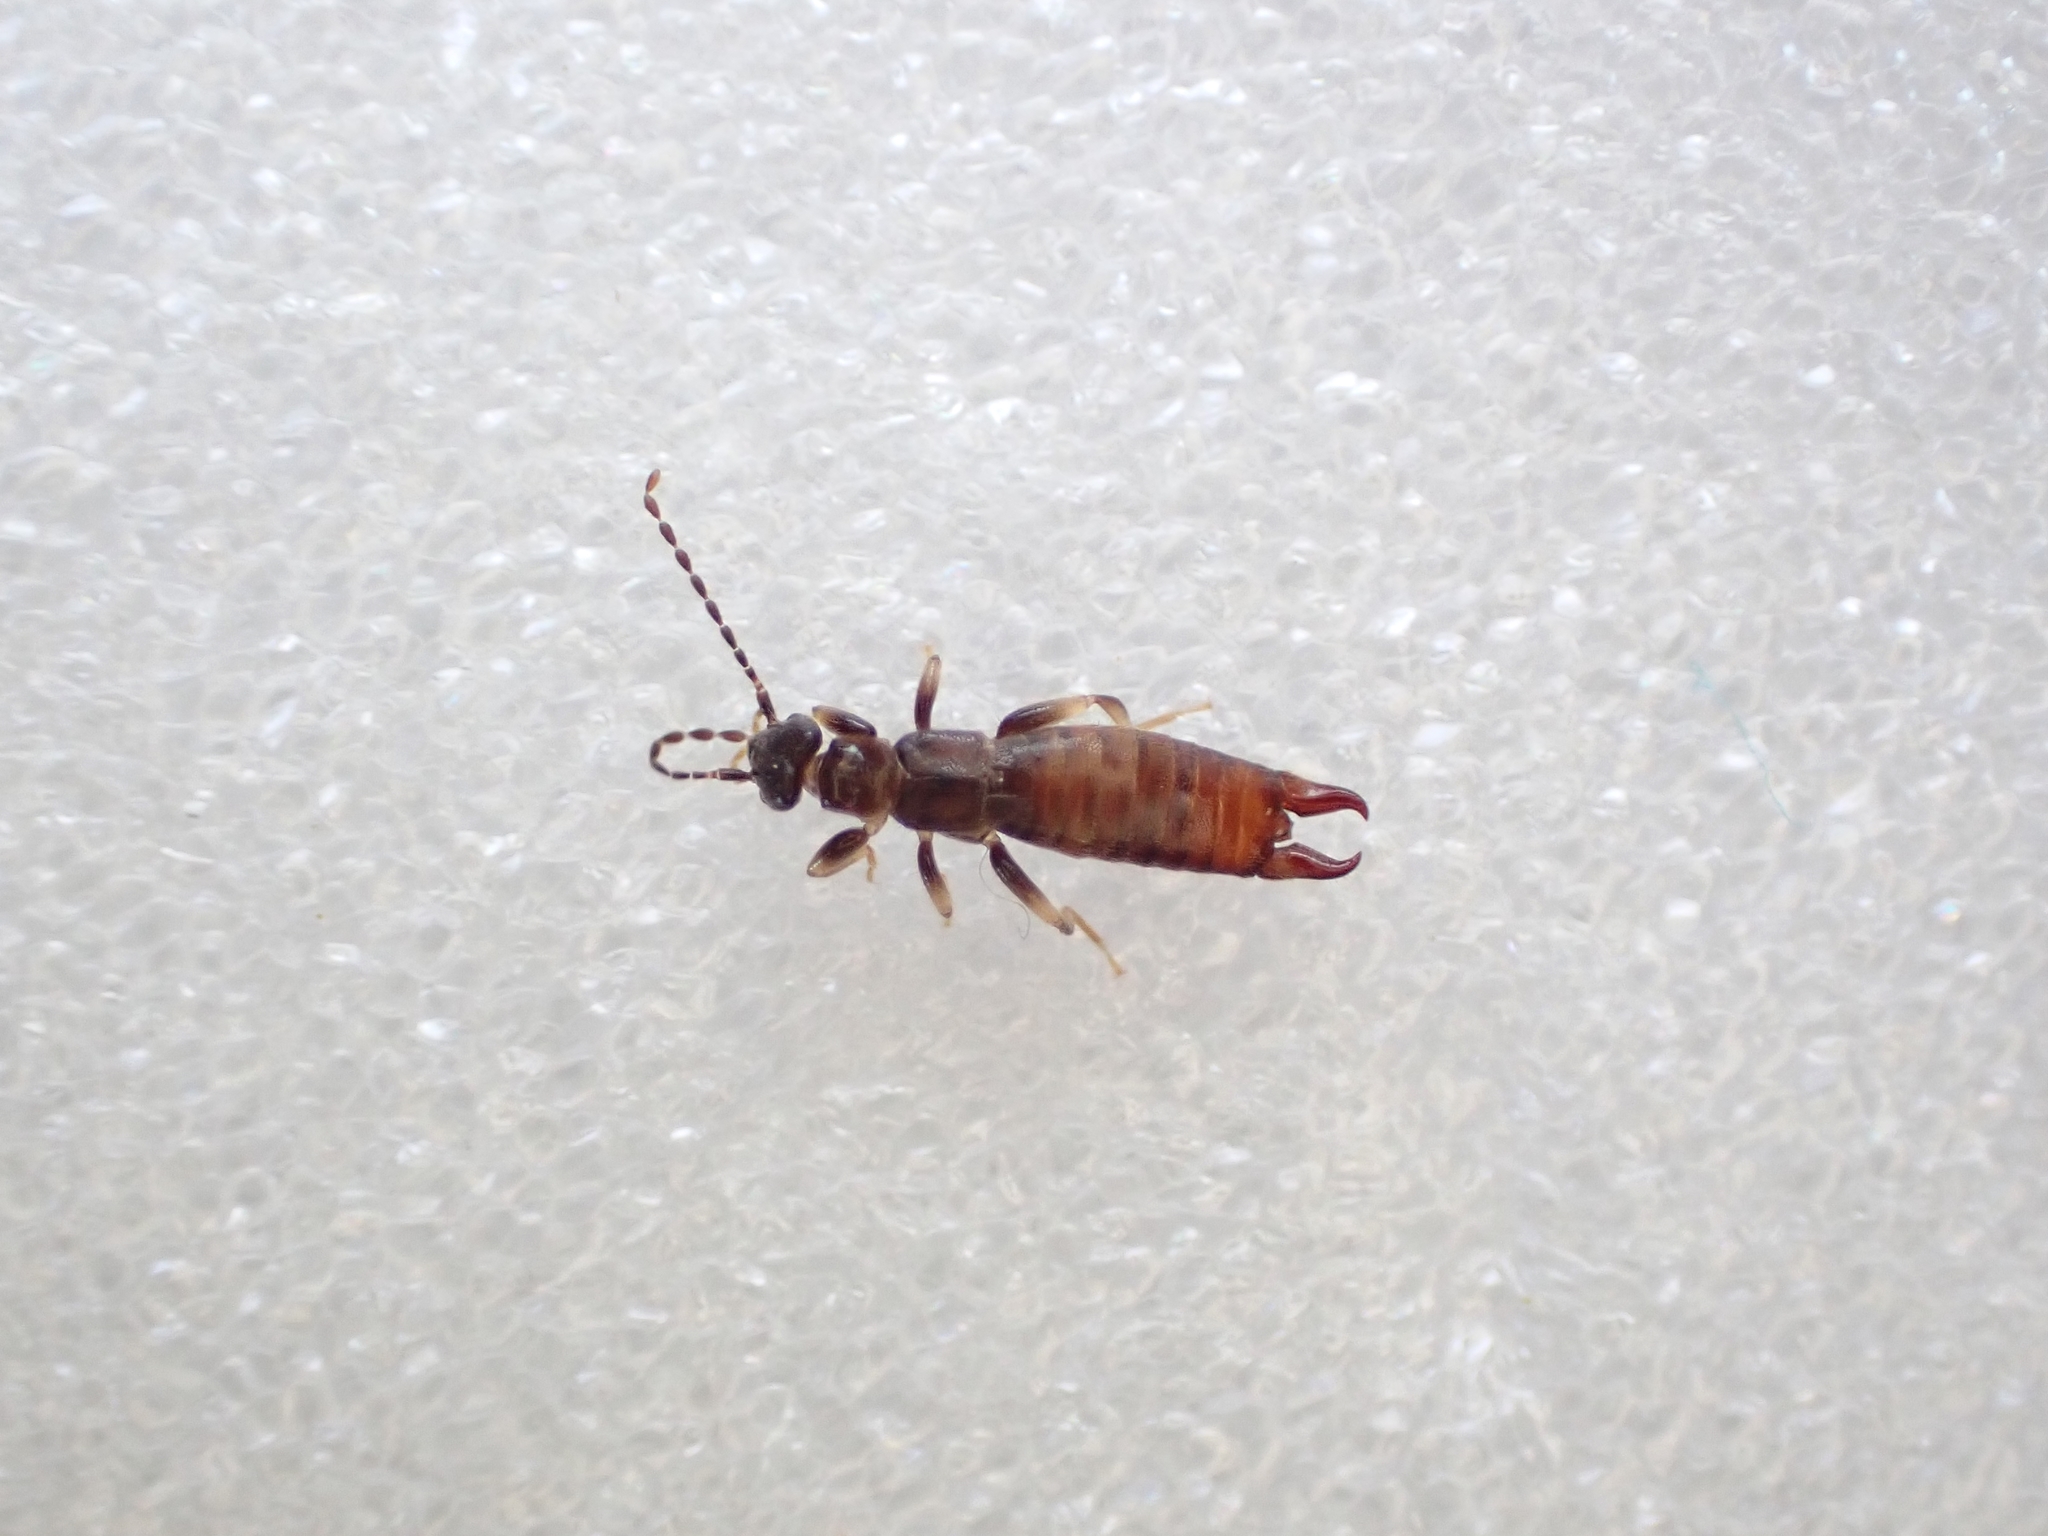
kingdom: Animalia
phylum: Arthropoda
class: Insecta
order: Dermaptera
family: Spongiphoridae
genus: Spirolabia
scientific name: Spirolabia kermadecensis
